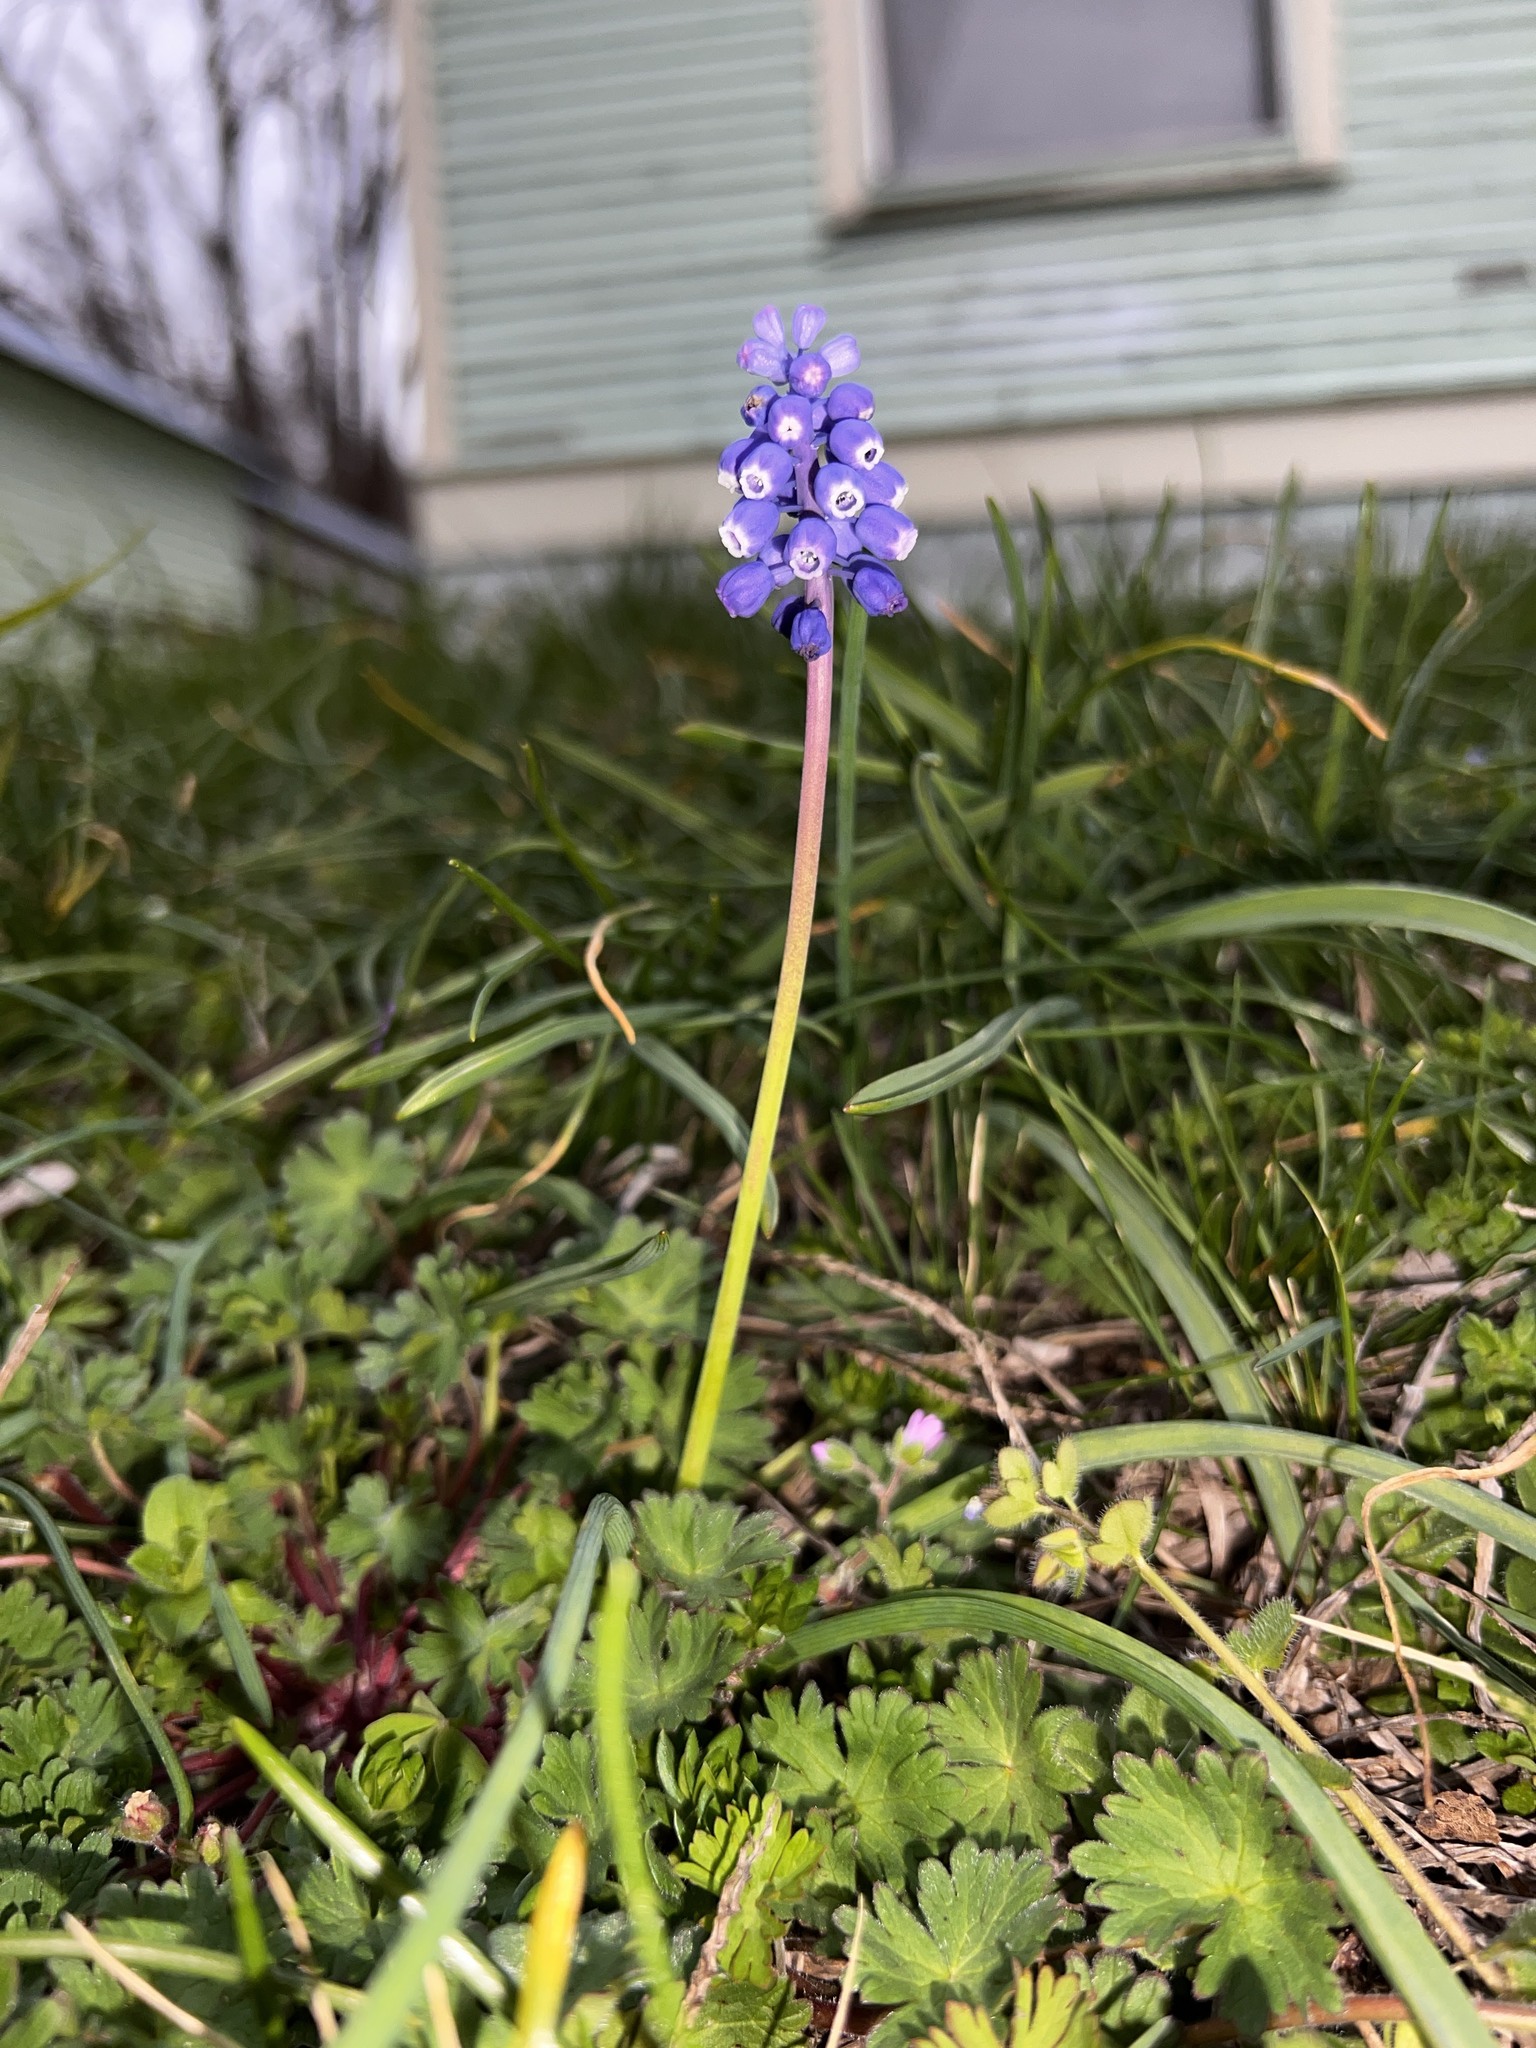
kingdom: Plantae
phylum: Tracheophyta
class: Liliopsida
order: Asparagales
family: Asparagaceae
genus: Muscari
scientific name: Muscari botryoides
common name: Compact grape-hyacinth
